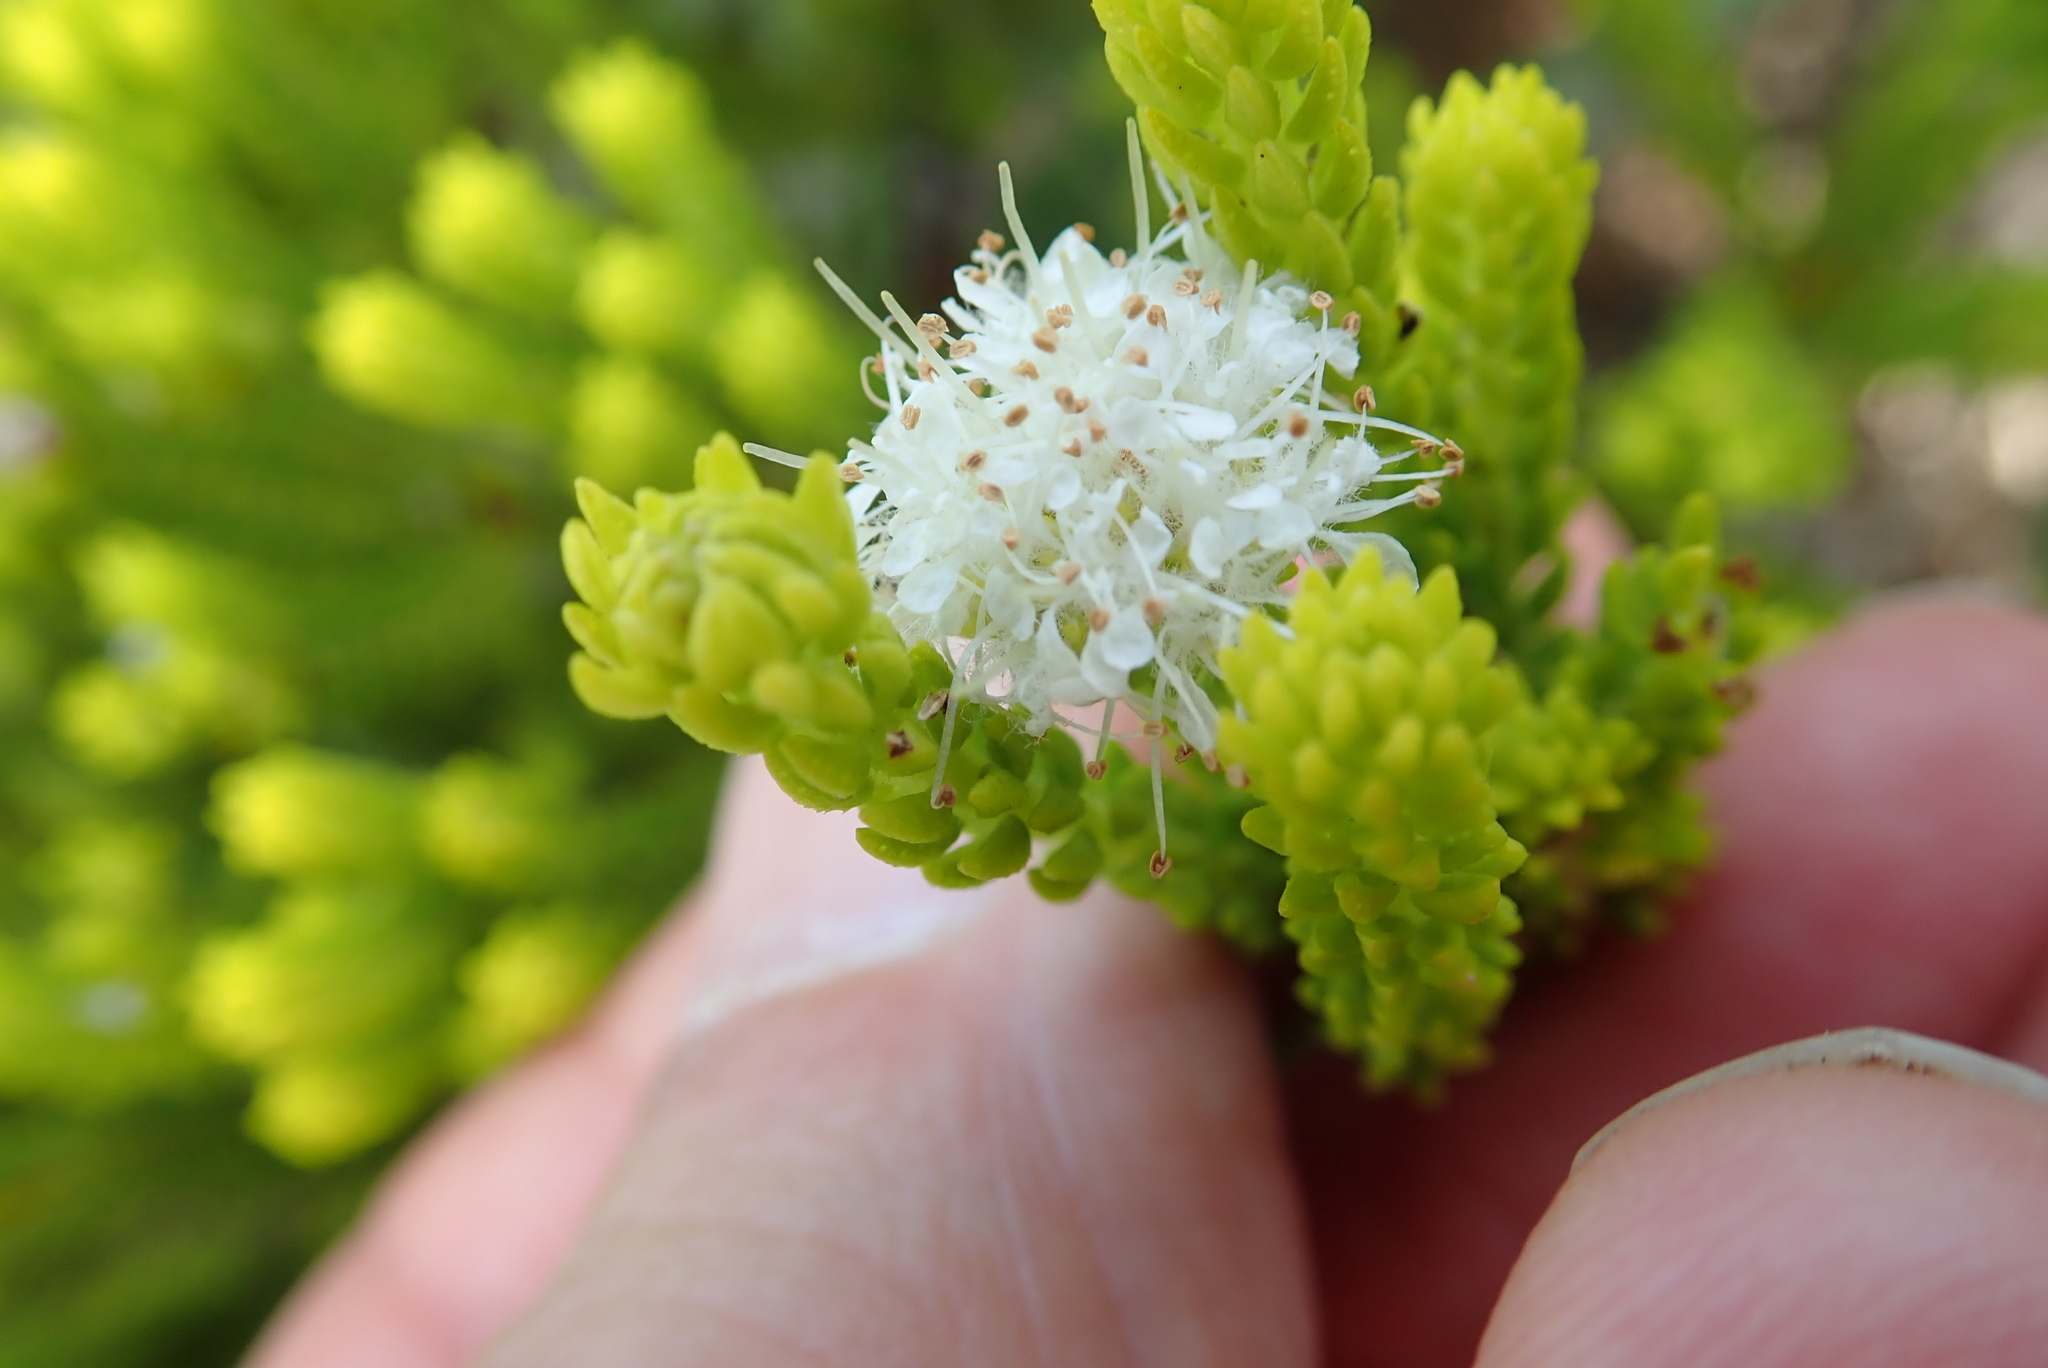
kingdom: Plantae
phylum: Tracheophyta
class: Magnoliopsida
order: Sapindales
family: Rutaceae
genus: Agathosma
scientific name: Agathosma collina
